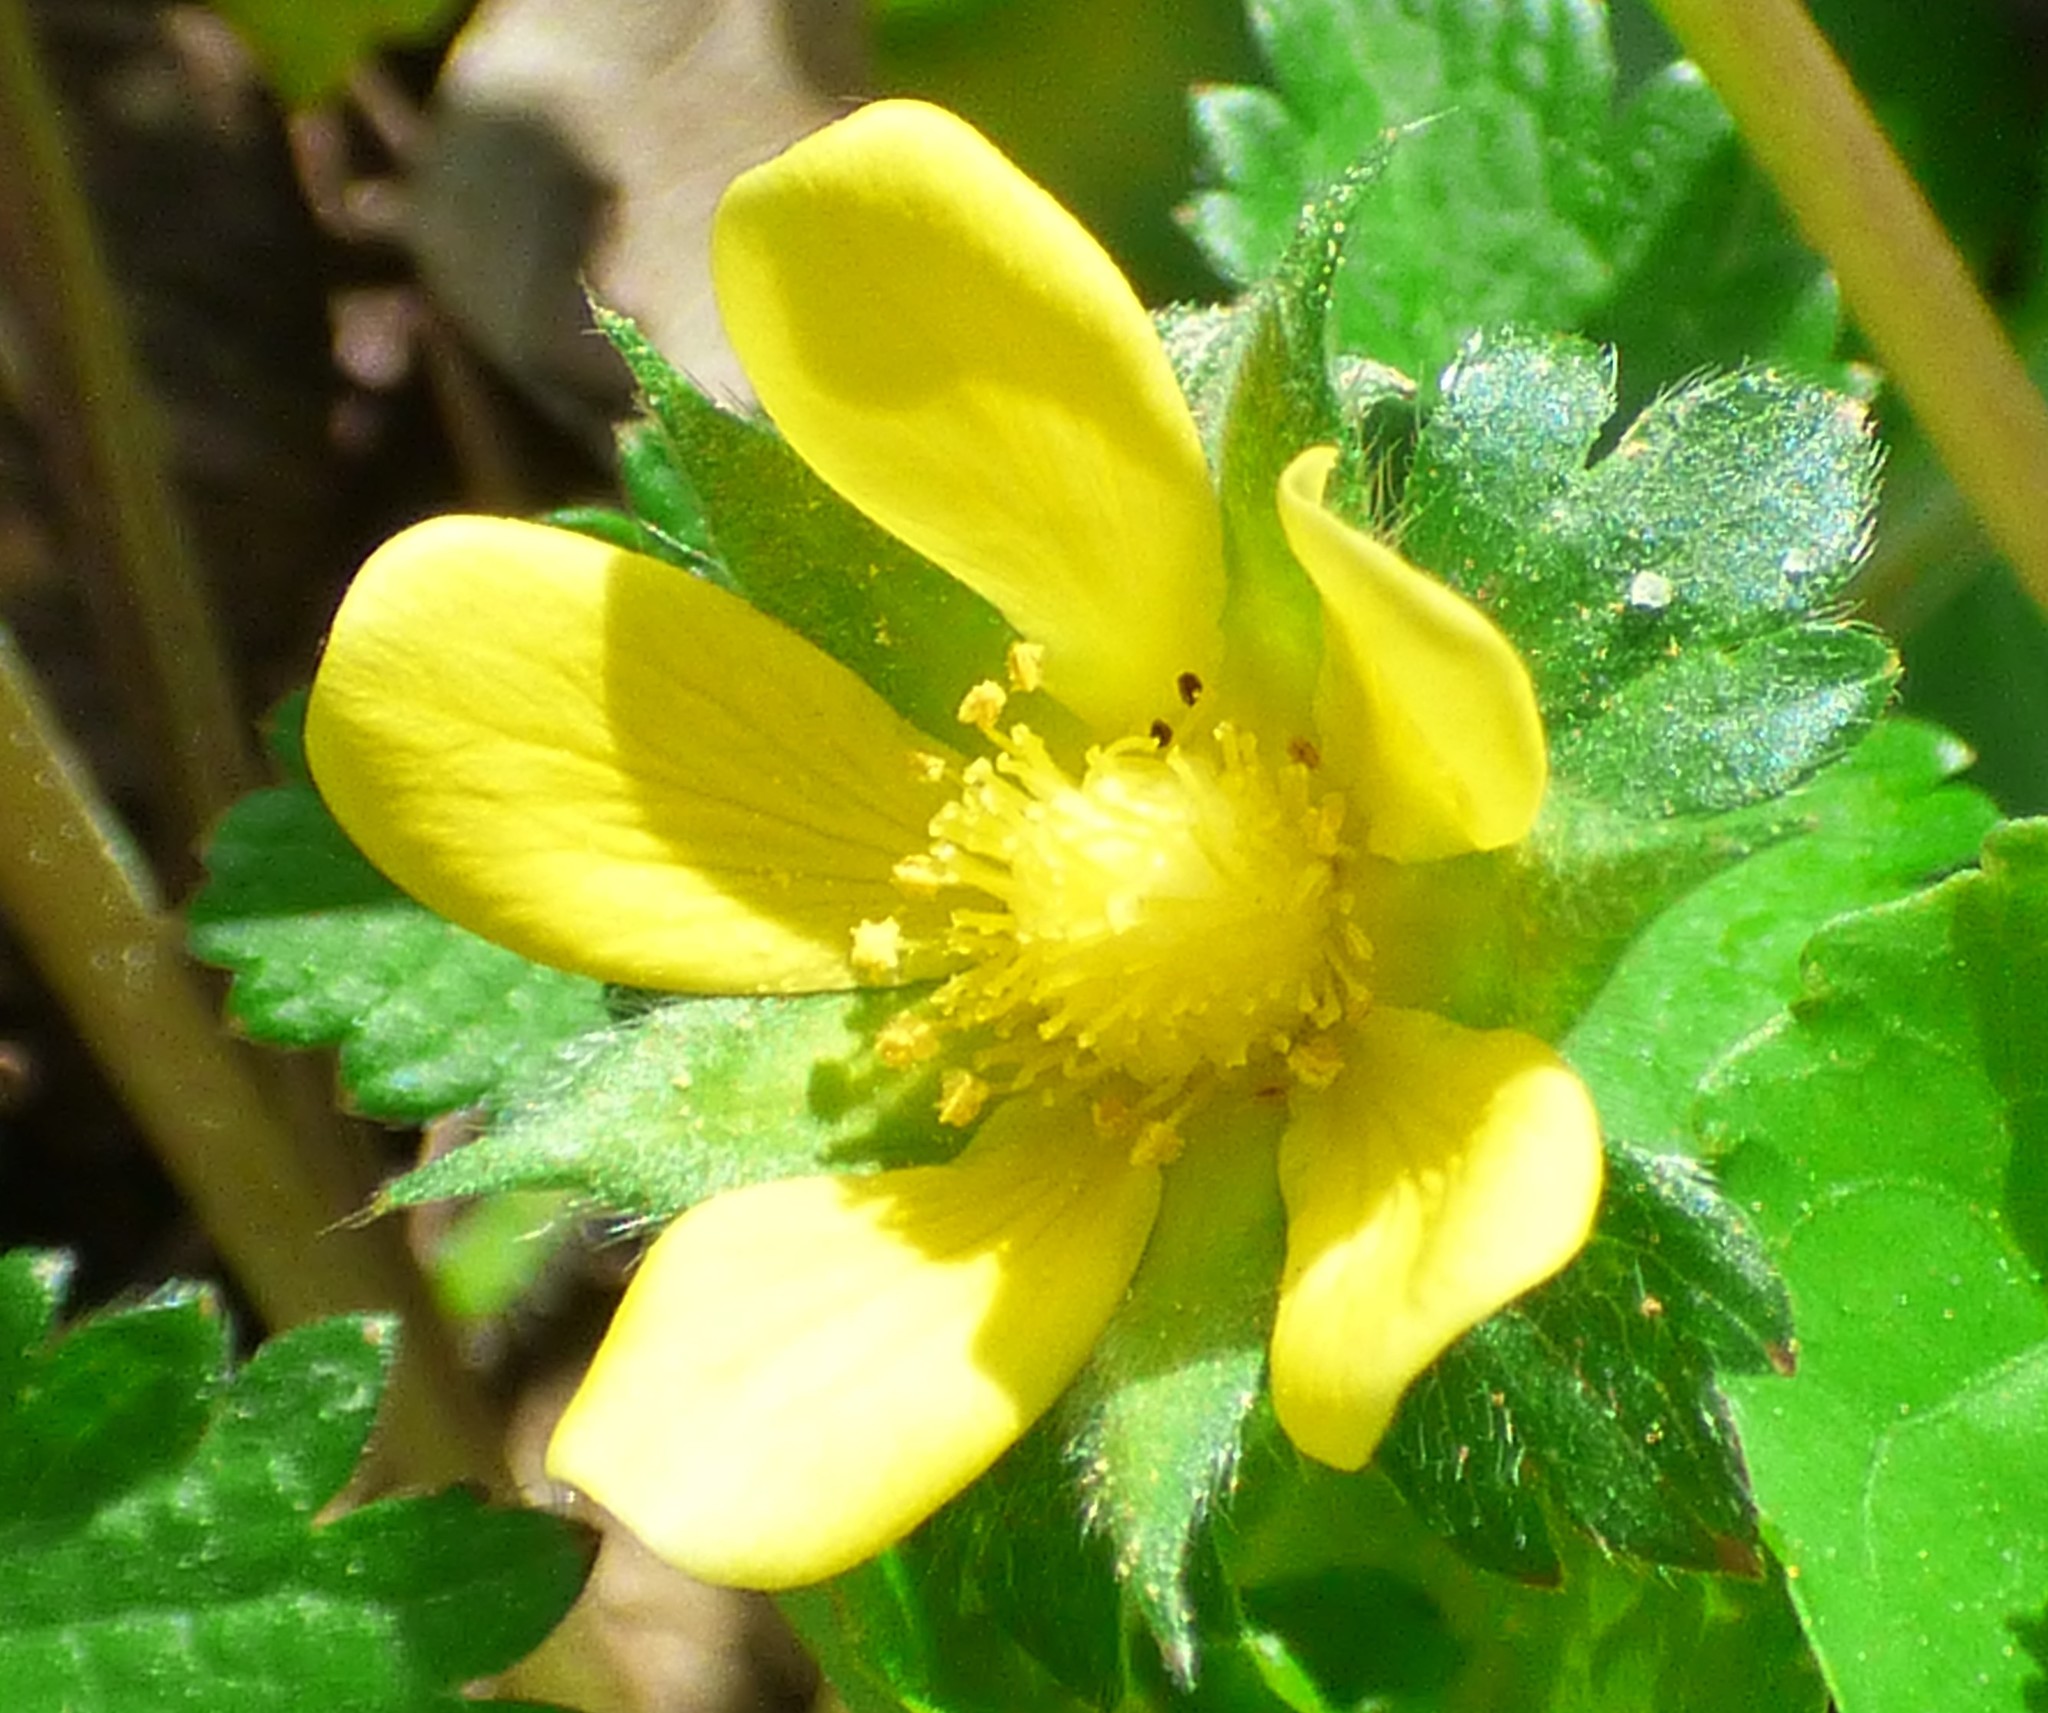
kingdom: Plantae
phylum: Tracheophyta
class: Magnoliopsida
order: Rosales
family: Rosaceae
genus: Potentilla
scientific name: Potentilla indica
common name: Yellow-flowered strawberry
